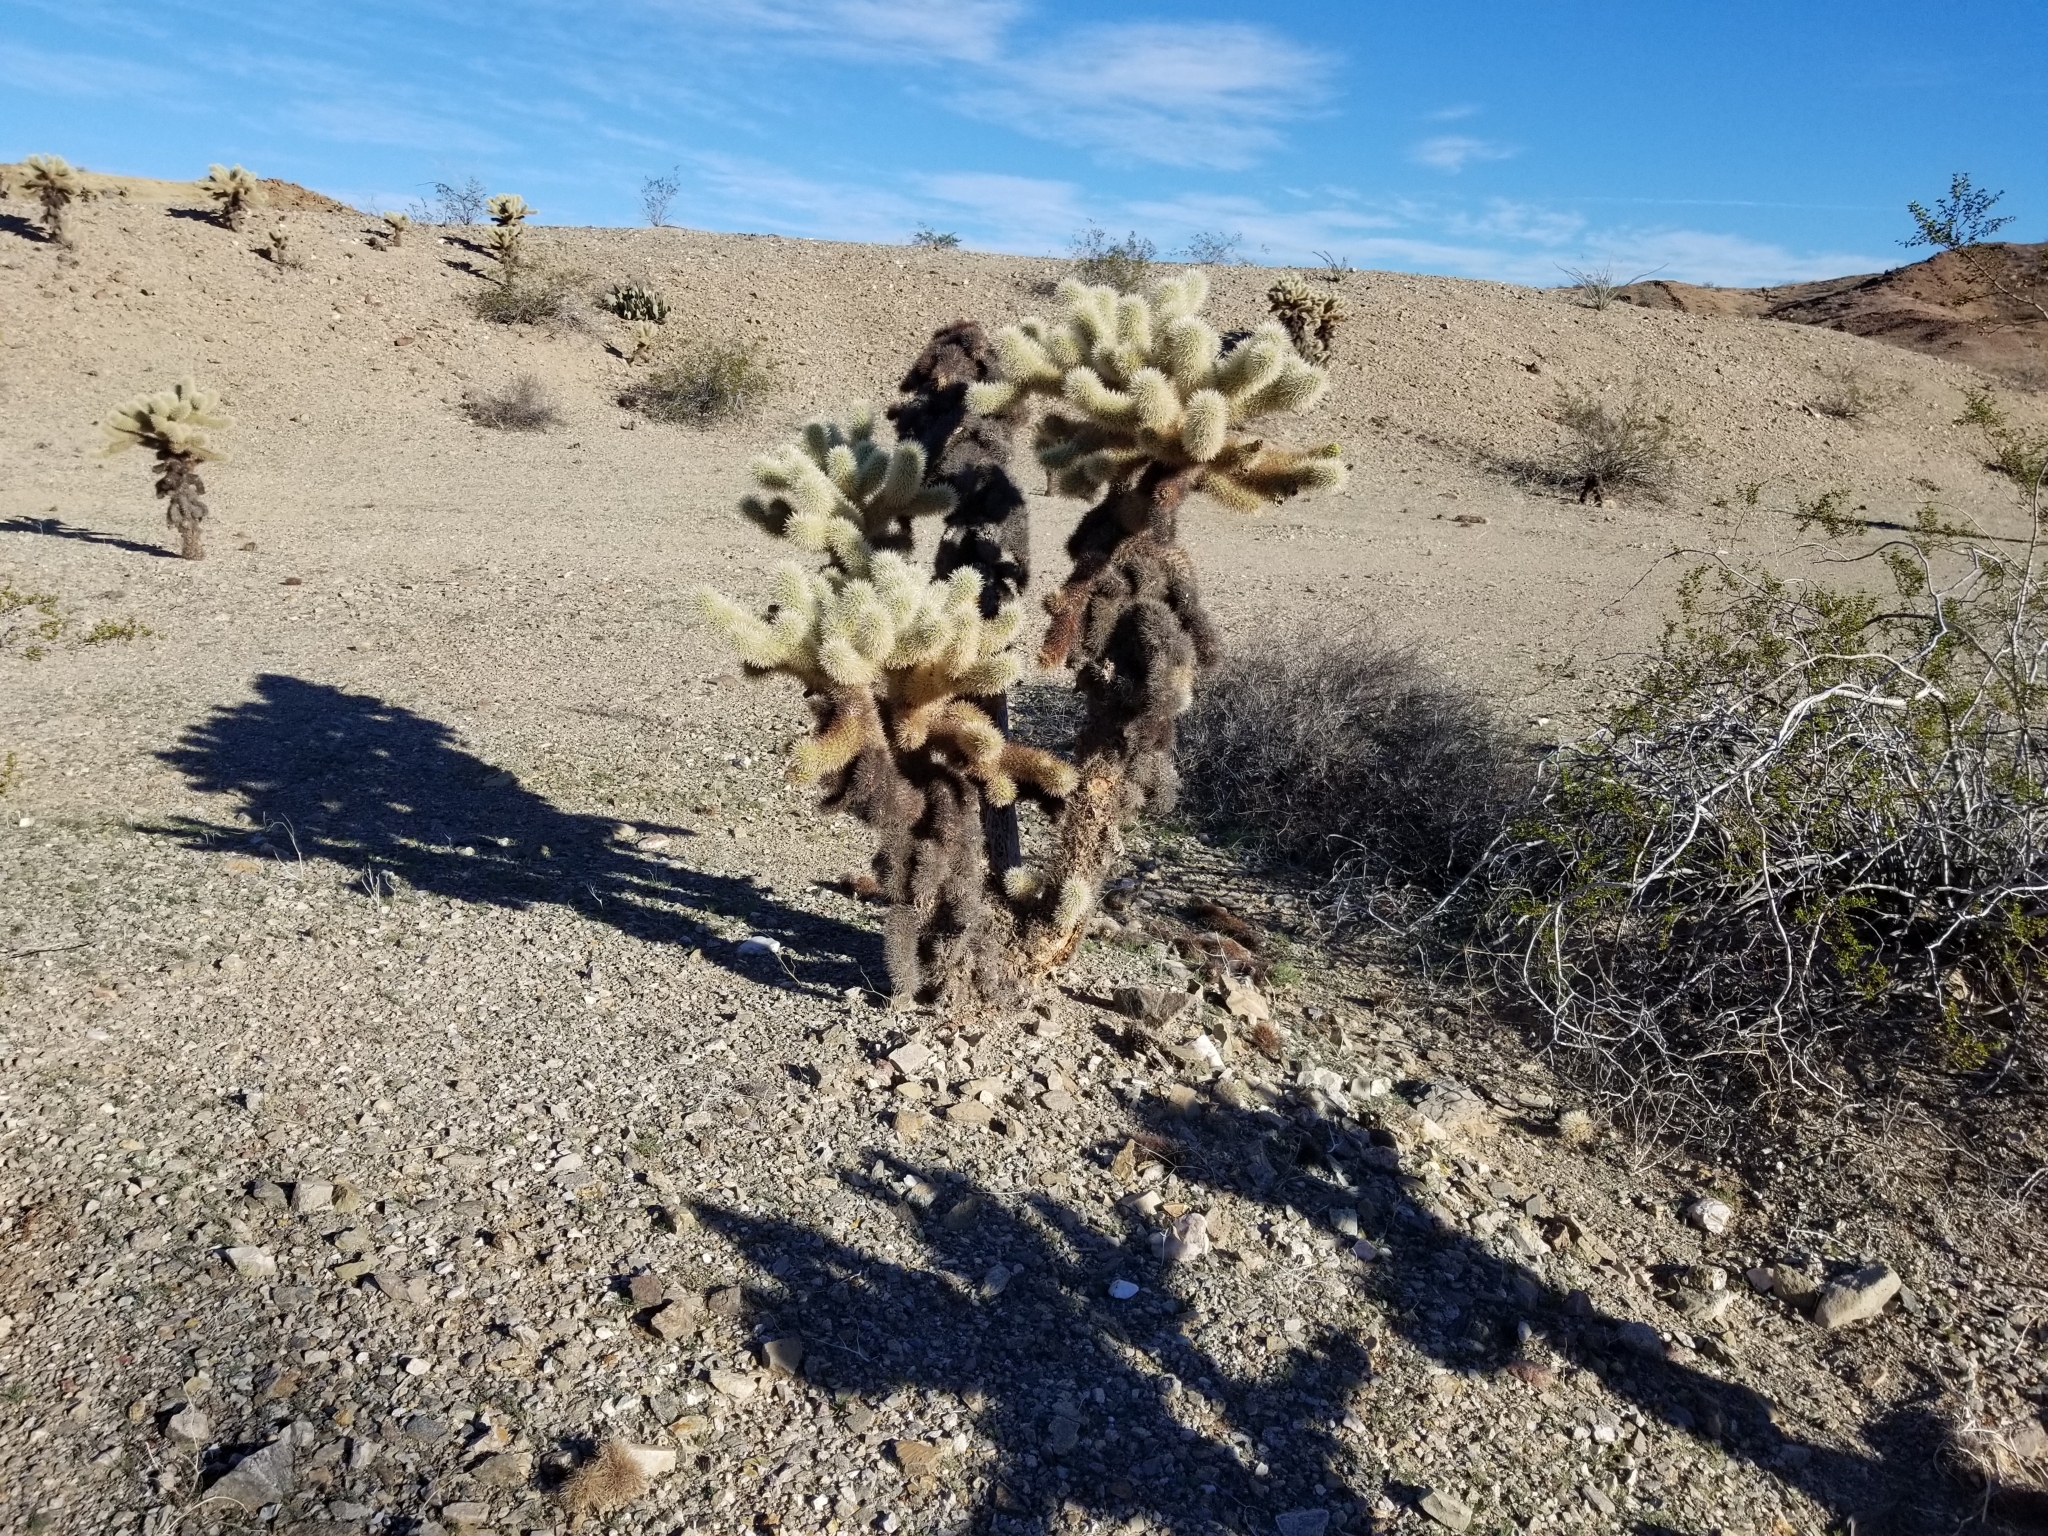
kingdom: Plantae
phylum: Tracheophyta
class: Magnoliopsida
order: Caryophyllales
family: Cactaceae
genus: Cylindropuntia
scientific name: Cylindropuntia fosbergii
